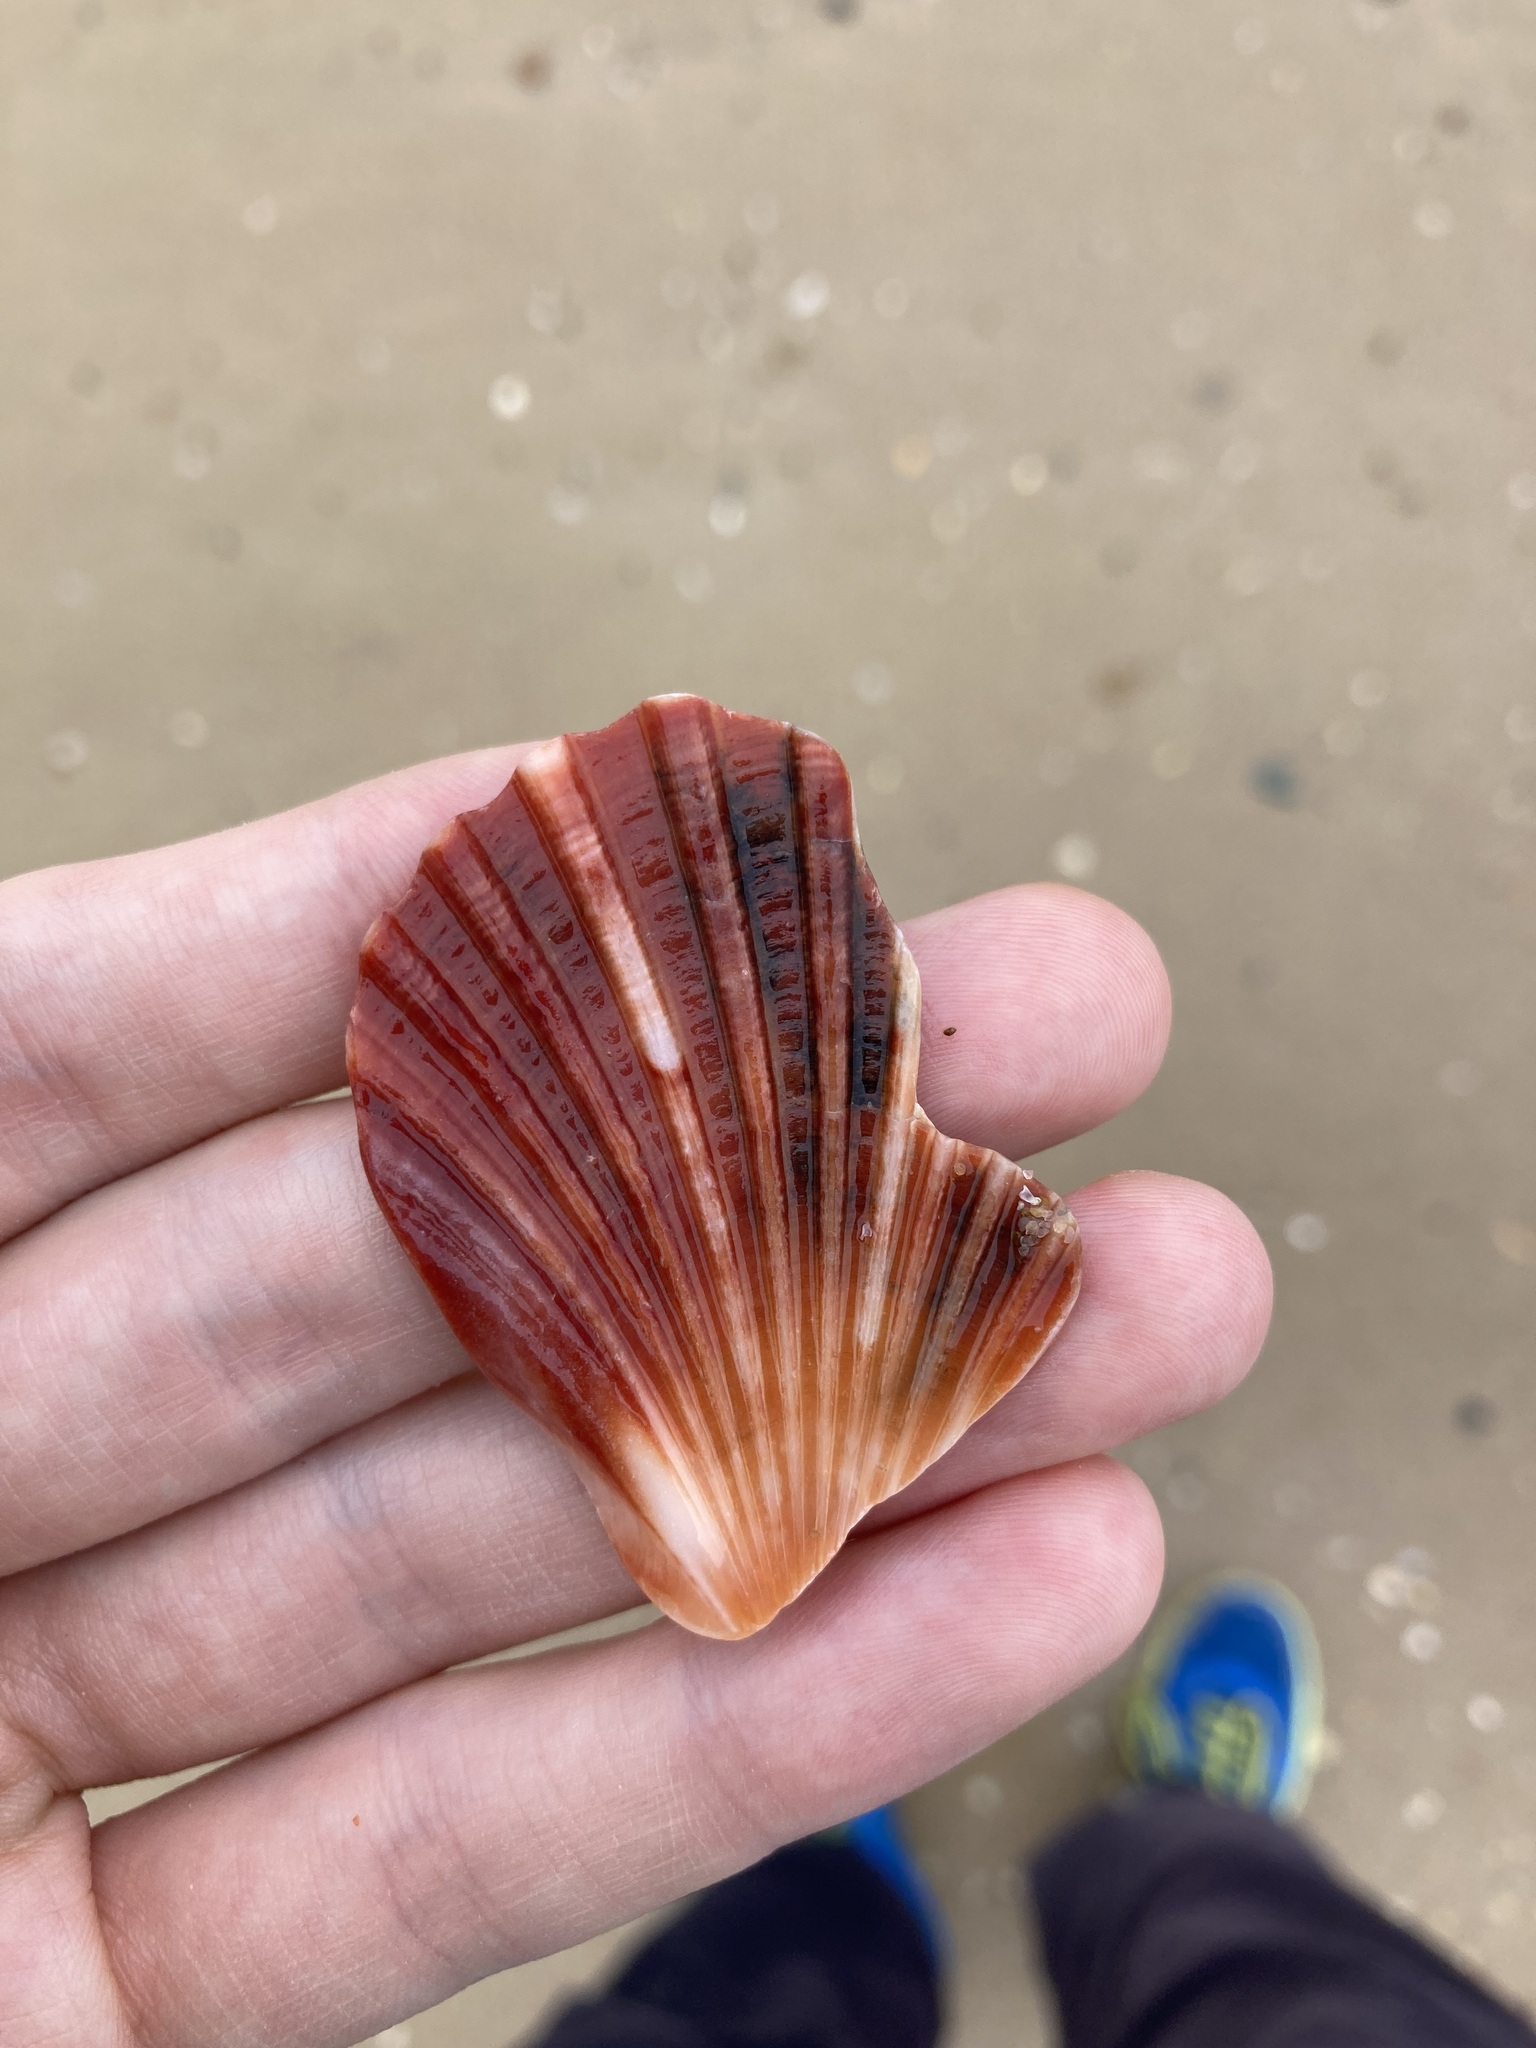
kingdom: Animalia
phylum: Mollusca
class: Bivalvia
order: Pectinida
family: Pectinidae
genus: Pecten
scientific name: Pecten fumatus
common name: Australian scallop
